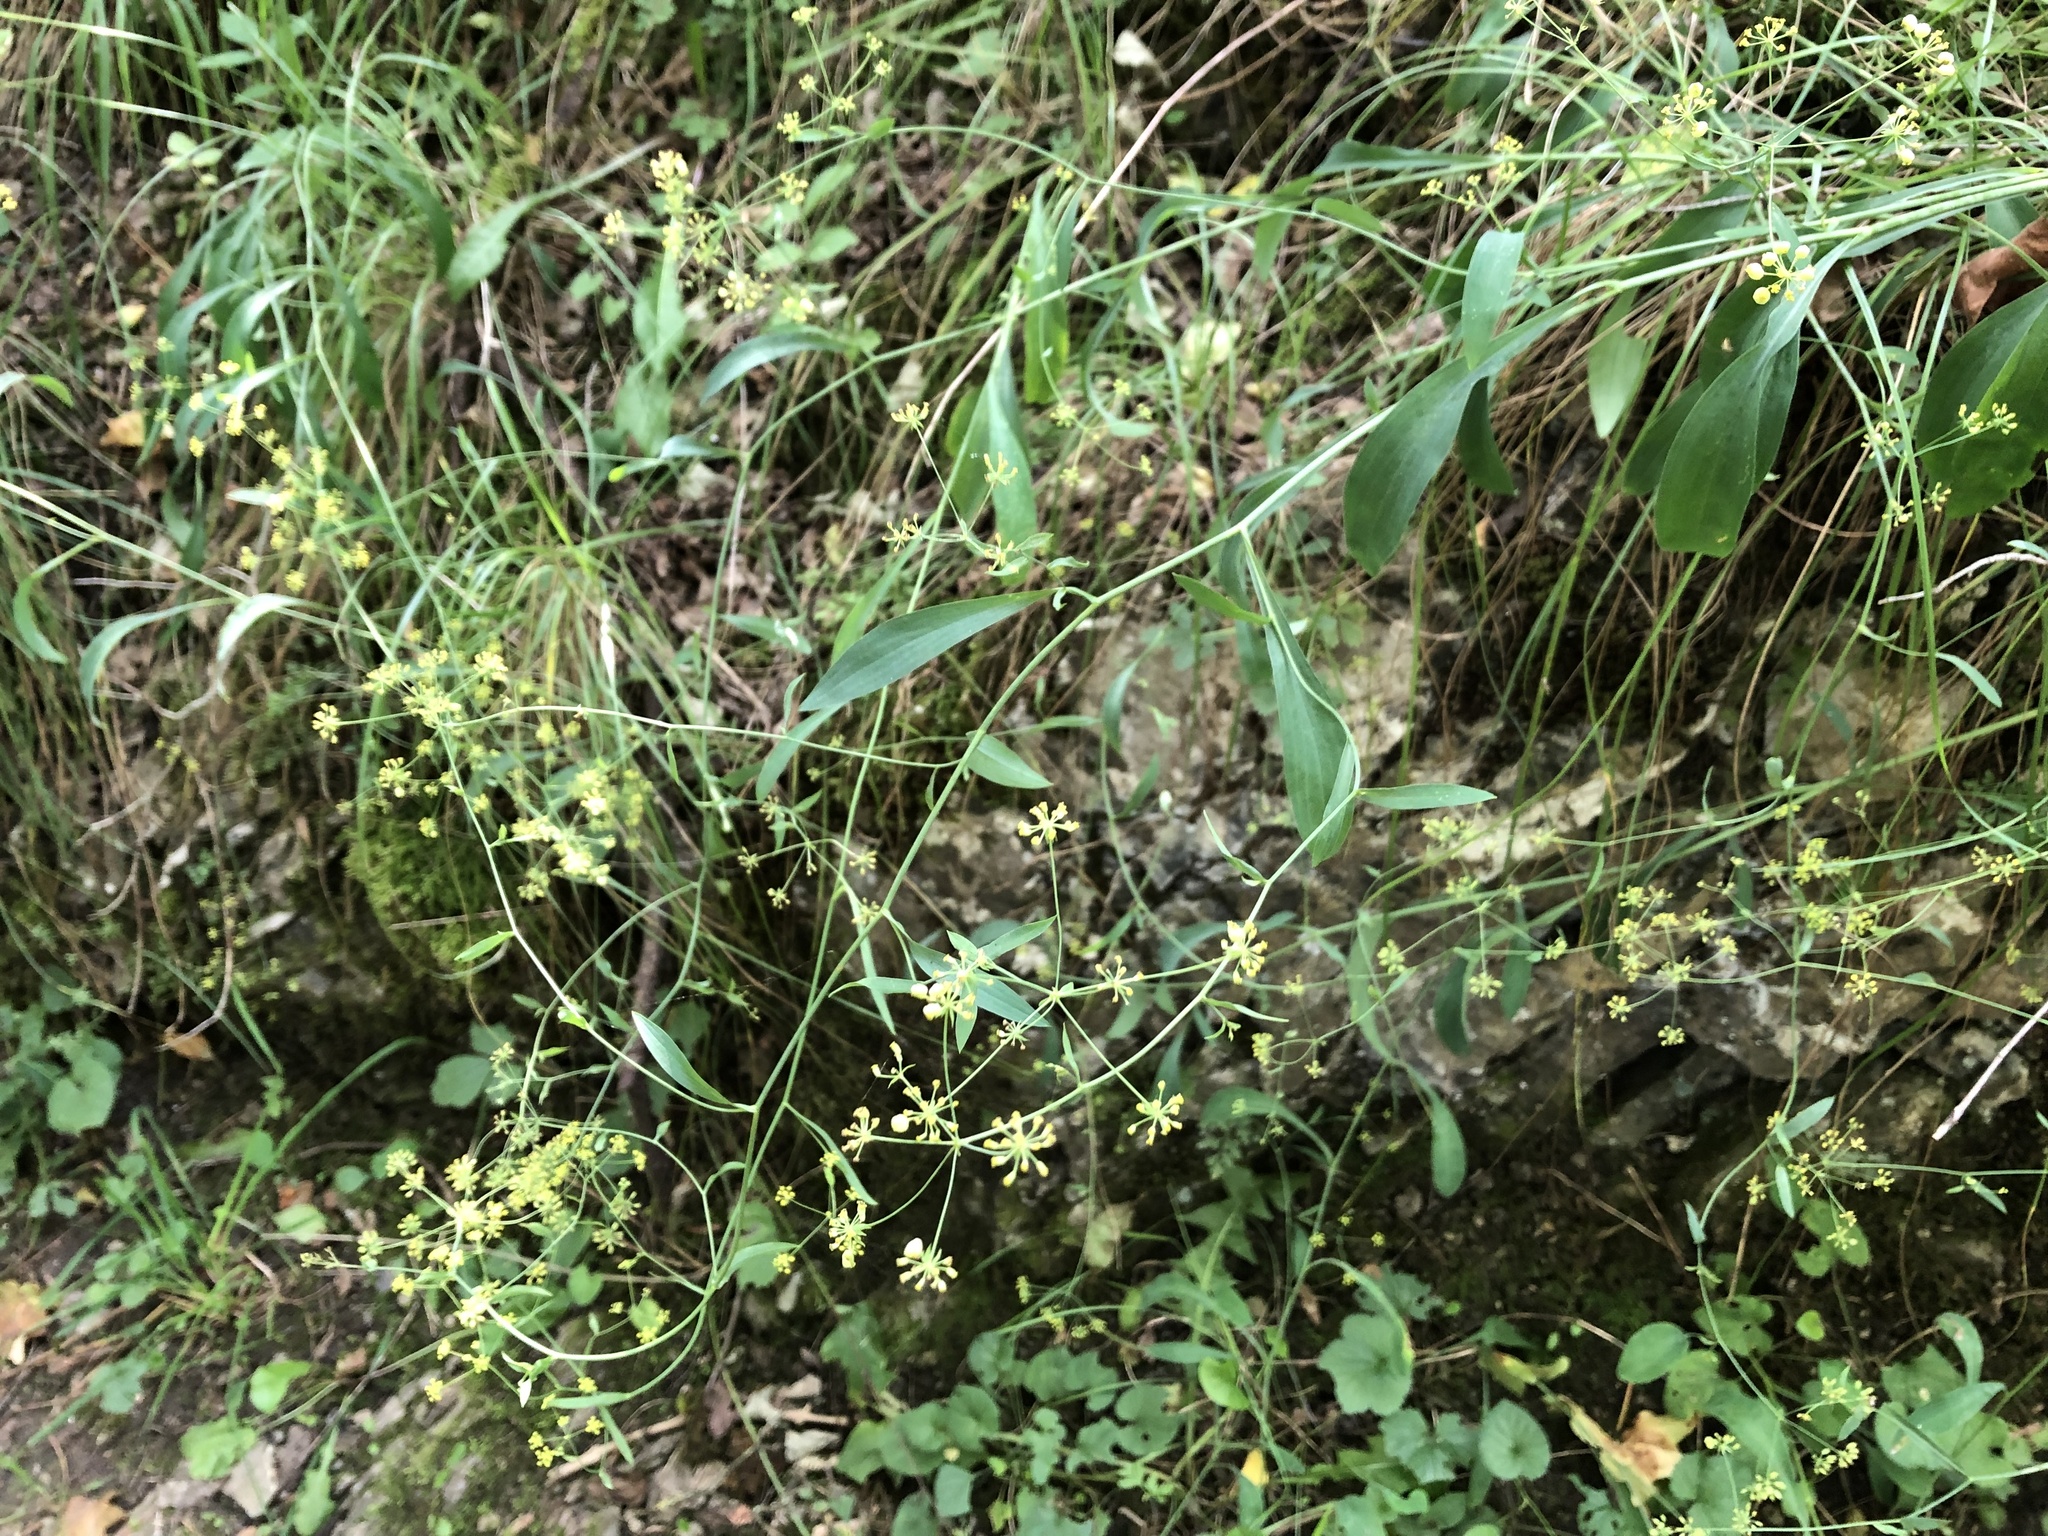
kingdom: Plantae
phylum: Tracheophyta
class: Magnoliopsida
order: Apiales
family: Apiaceae
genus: Bupleurum
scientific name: Bupleurum falcatum
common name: Sickle-leaved hare's-ear
